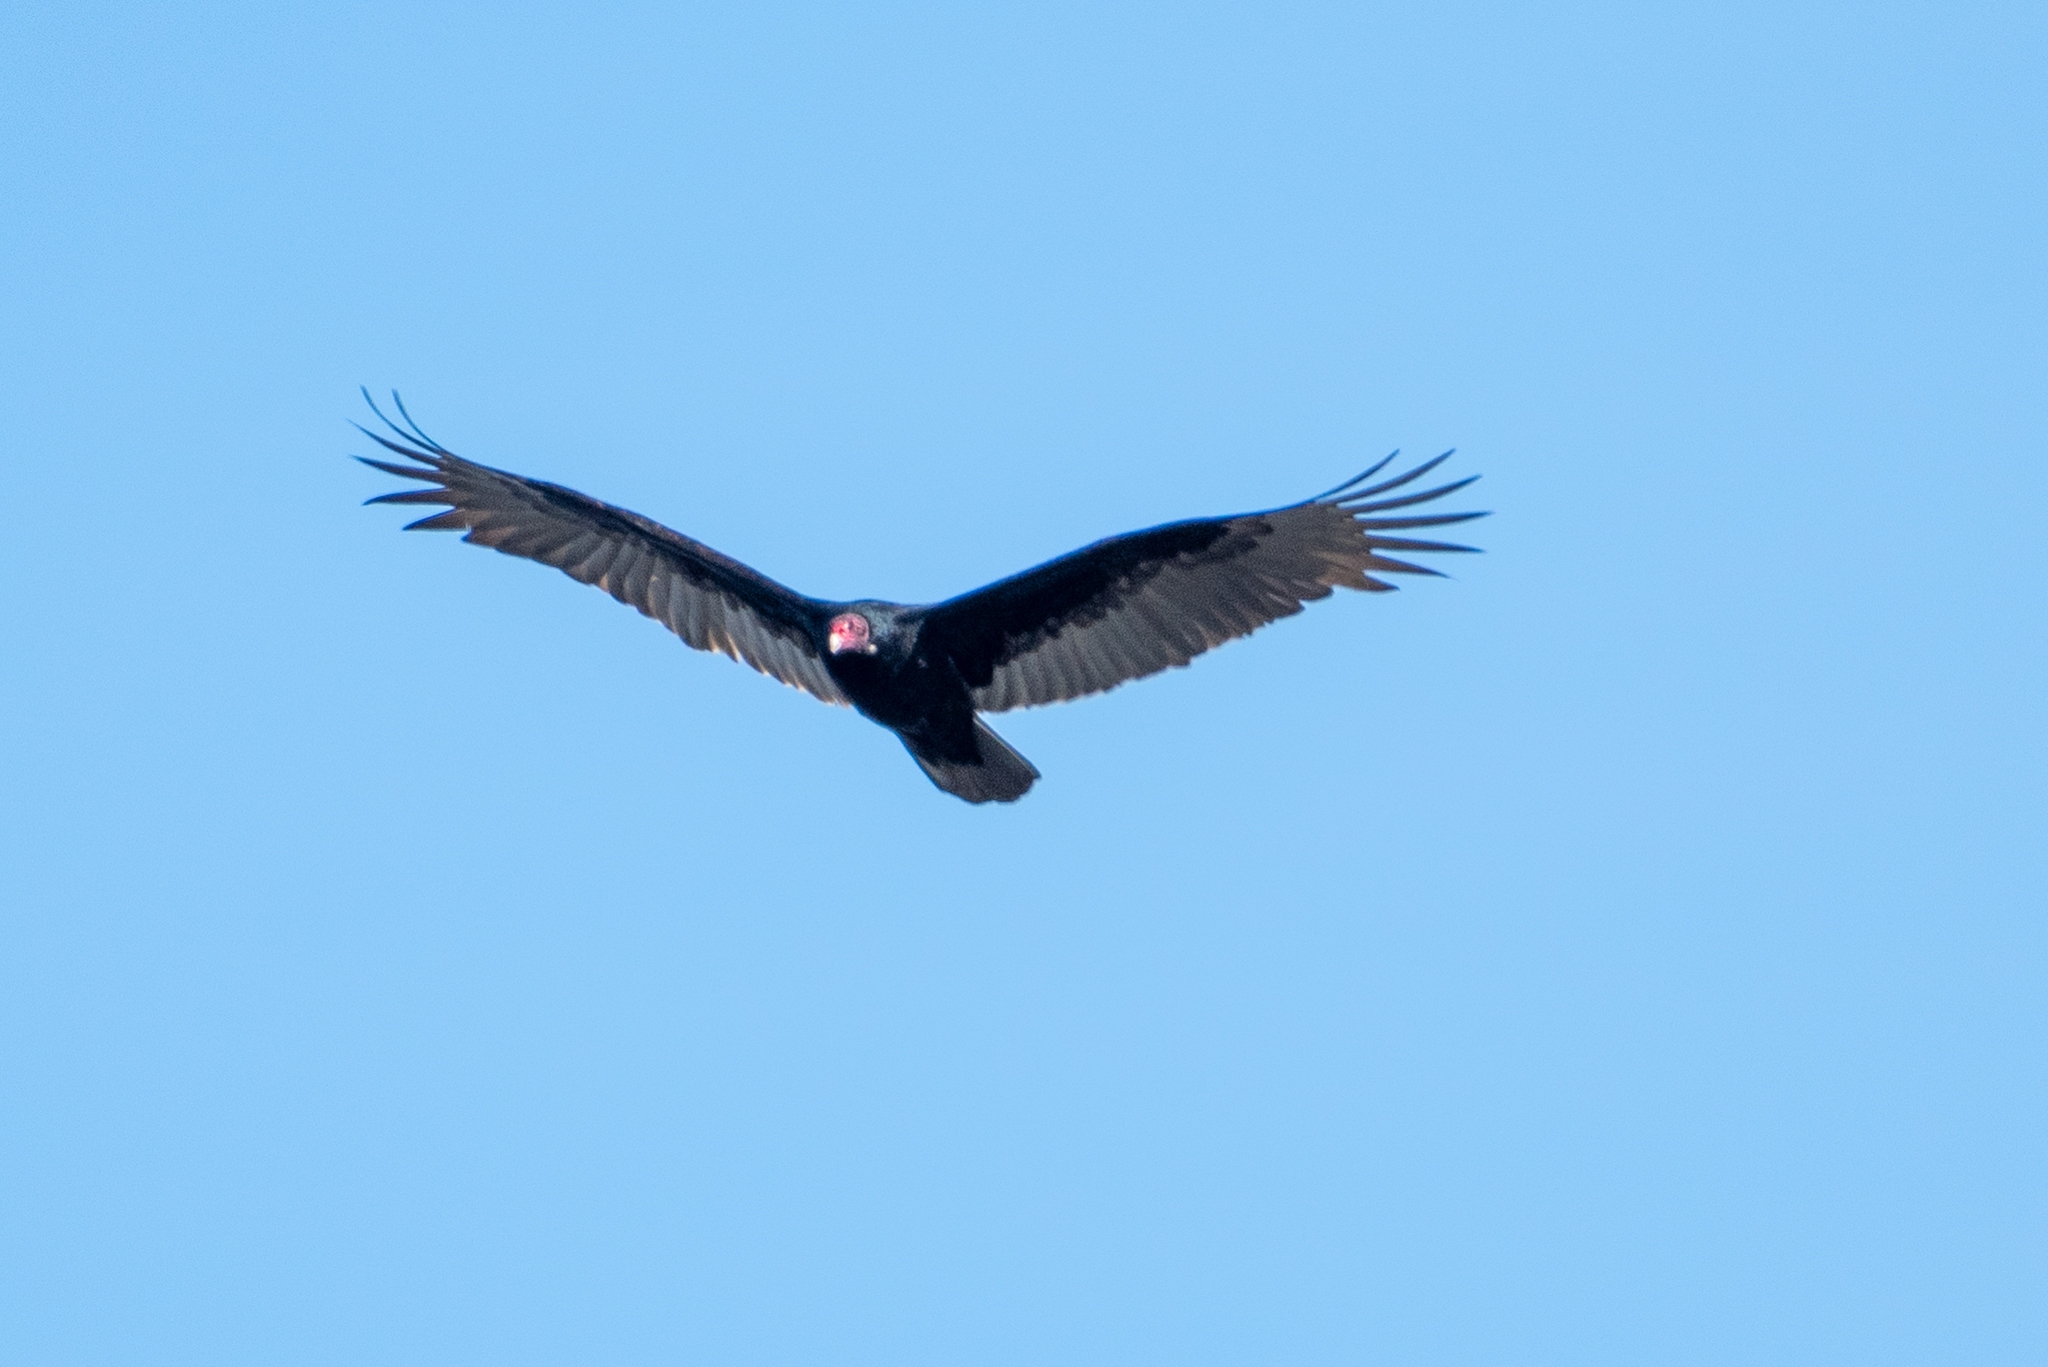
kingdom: Animalia
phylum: Chordata
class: Aves
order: Accipitriformes
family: Cathartidae
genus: Cathartes
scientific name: Cathartes aura
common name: Turkey vulture
